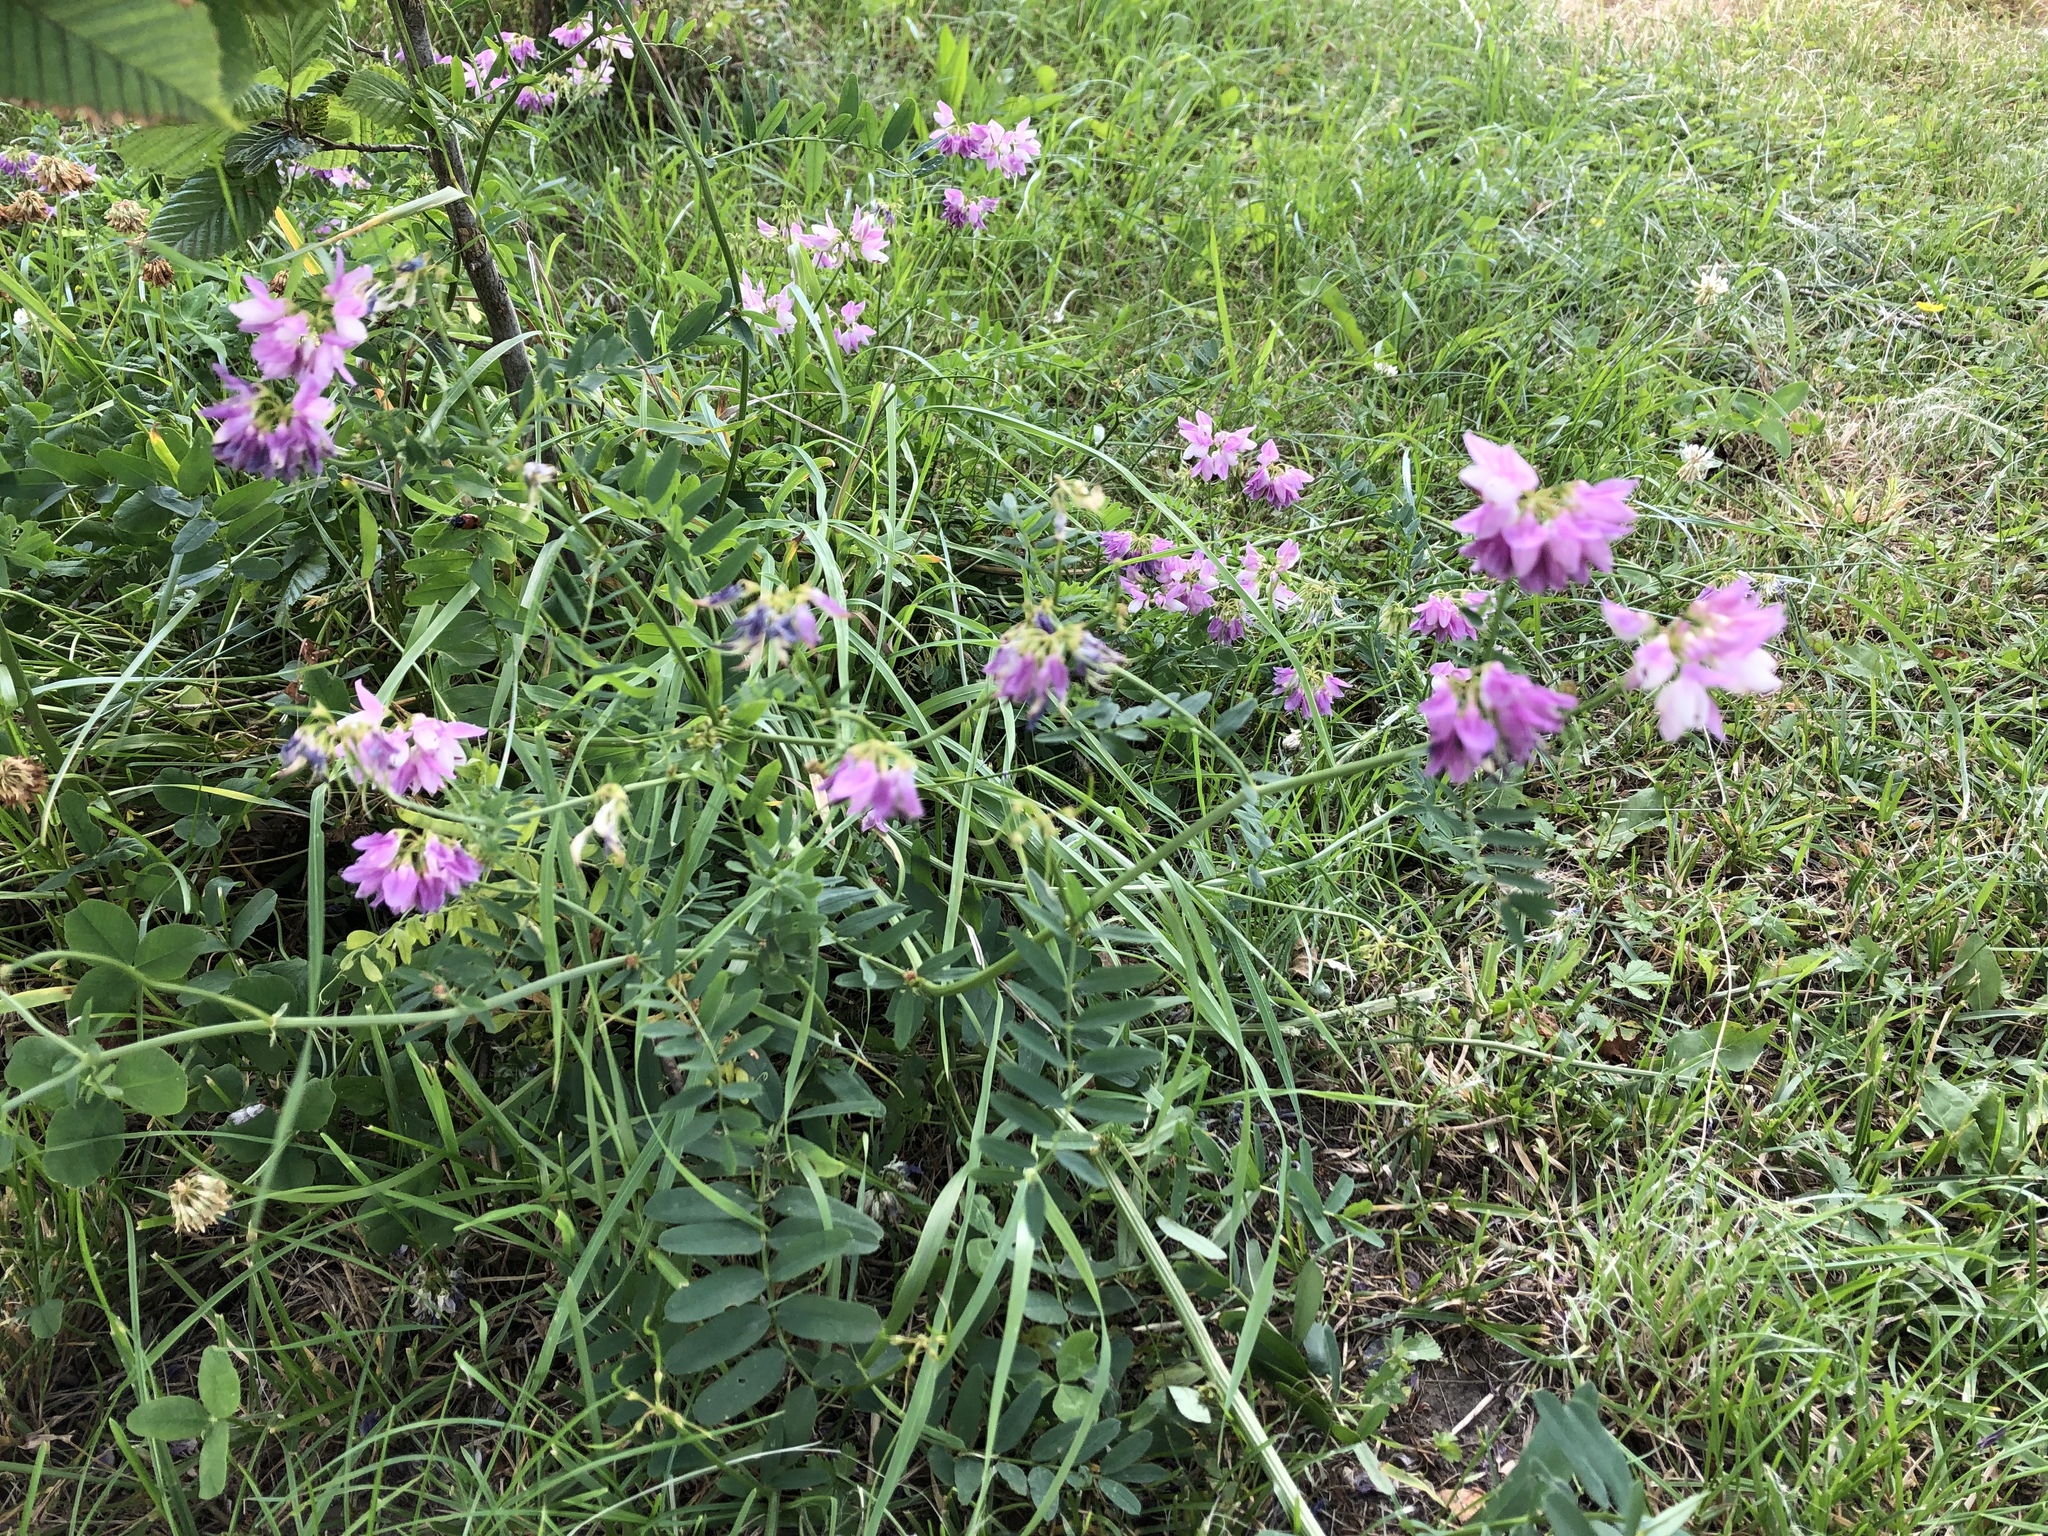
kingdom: Plantae
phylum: Tracheophyta
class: Magnoliopsida
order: Fabales
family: Fabaceae
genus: Coronilla
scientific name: Coronilla varia
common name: Crownvetch
